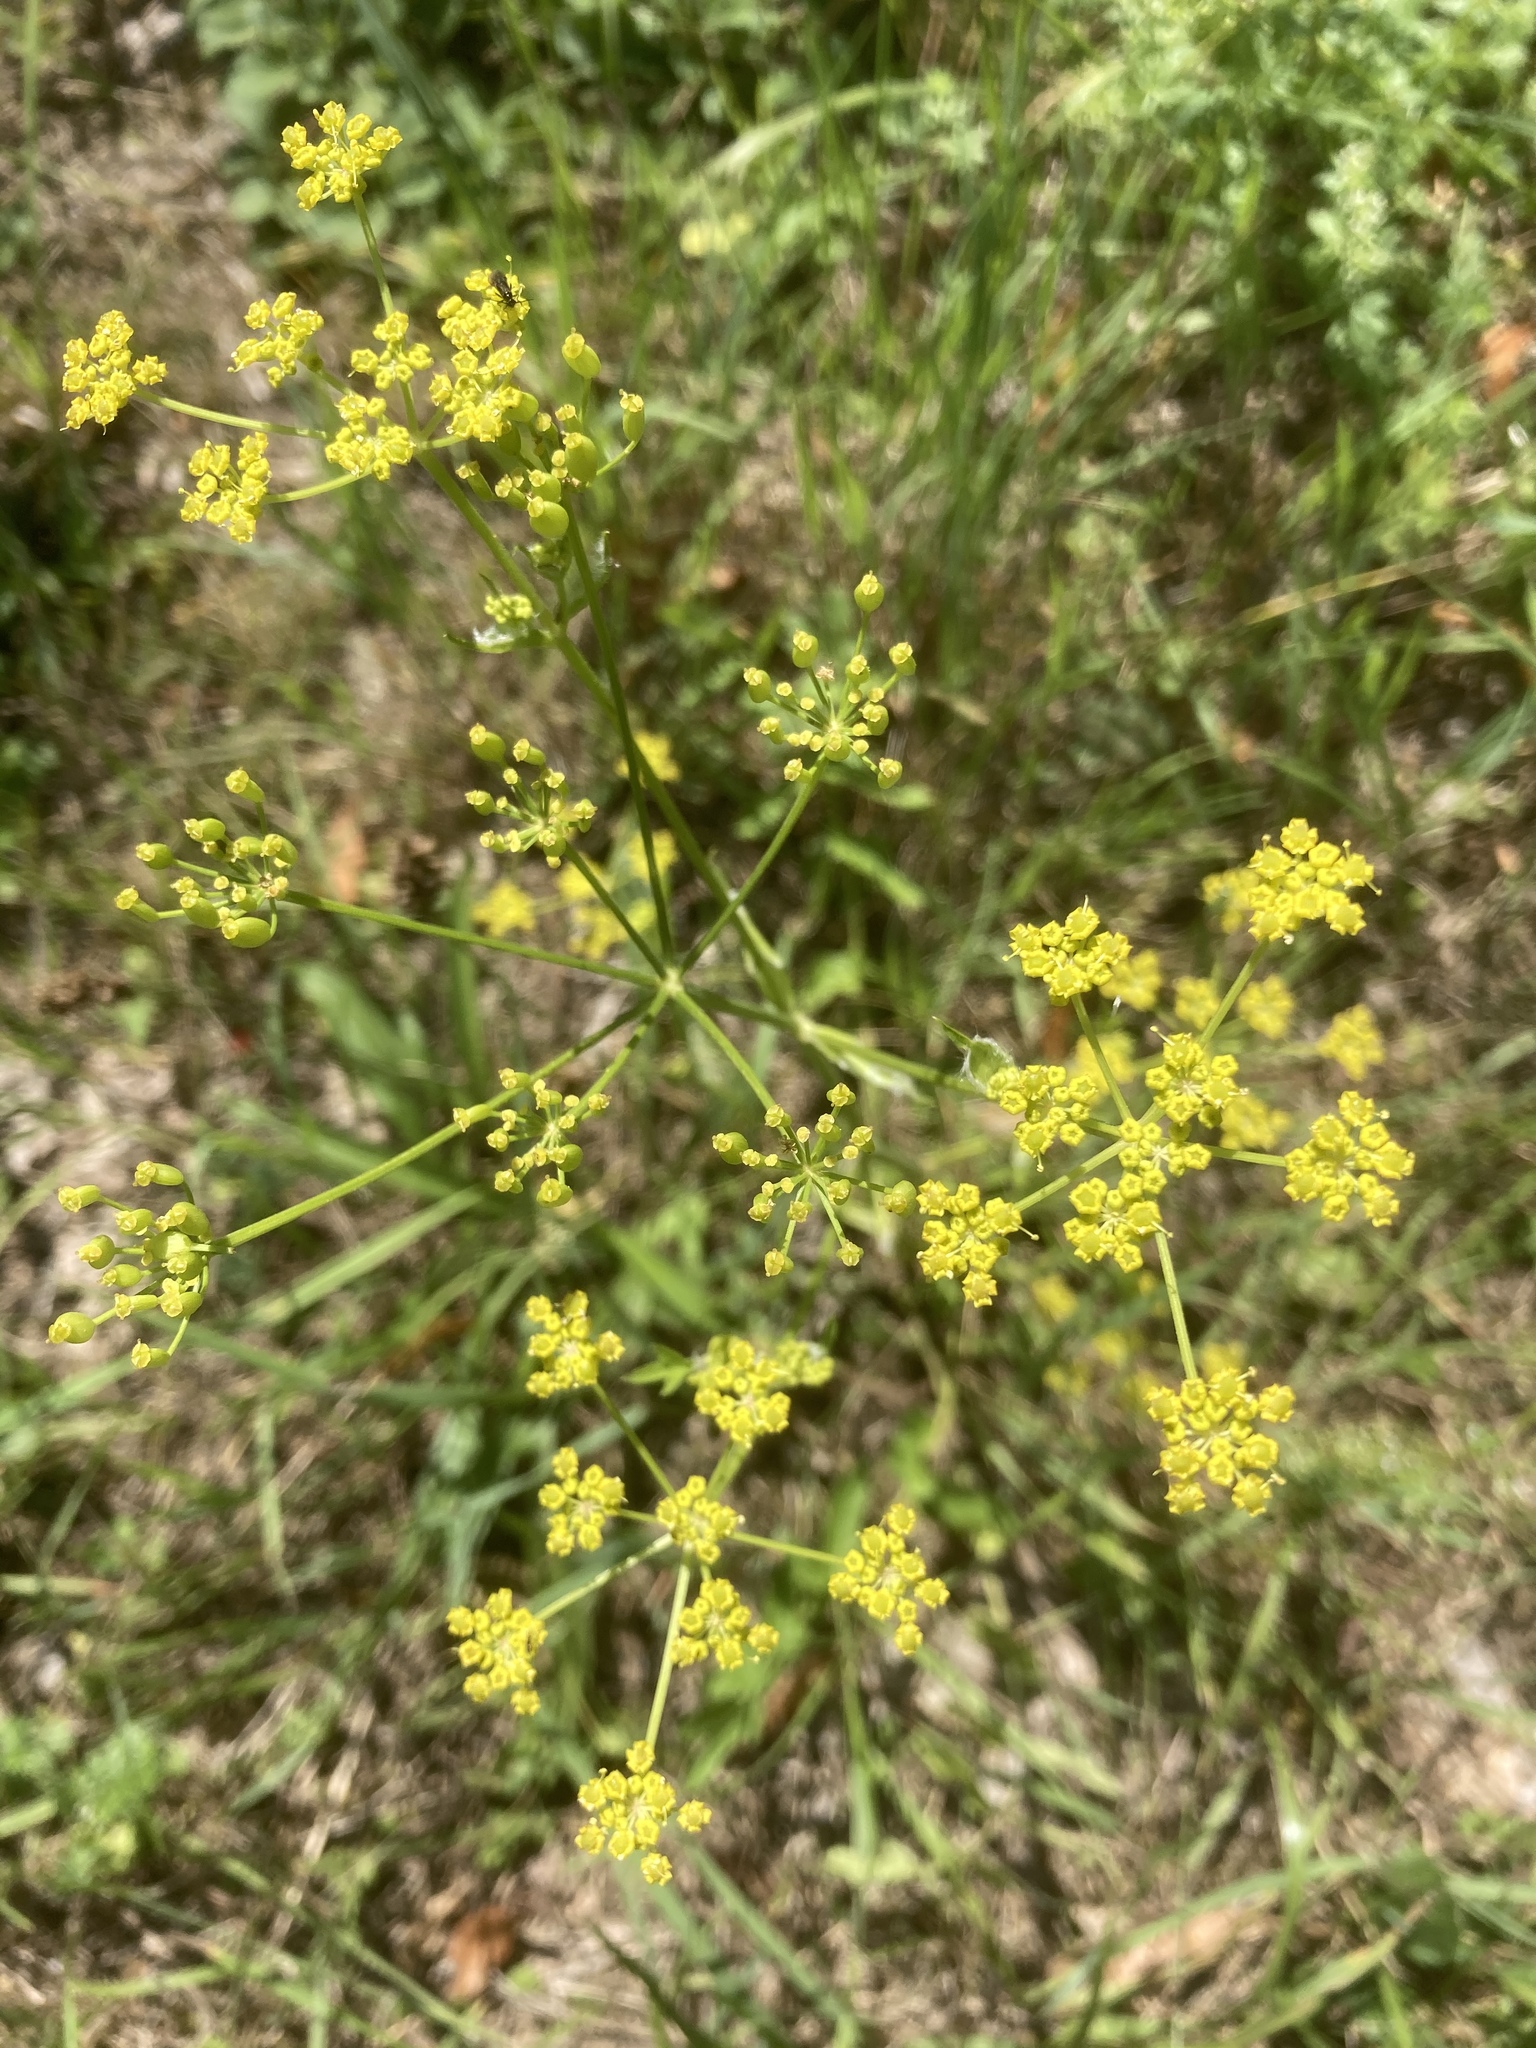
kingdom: Plantae
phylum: Tracheophyta
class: Magnoliopsida
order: Apiales
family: Apiaceae
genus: Pastinaca
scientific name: Pastinaca sativa
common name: Wild parsnip
